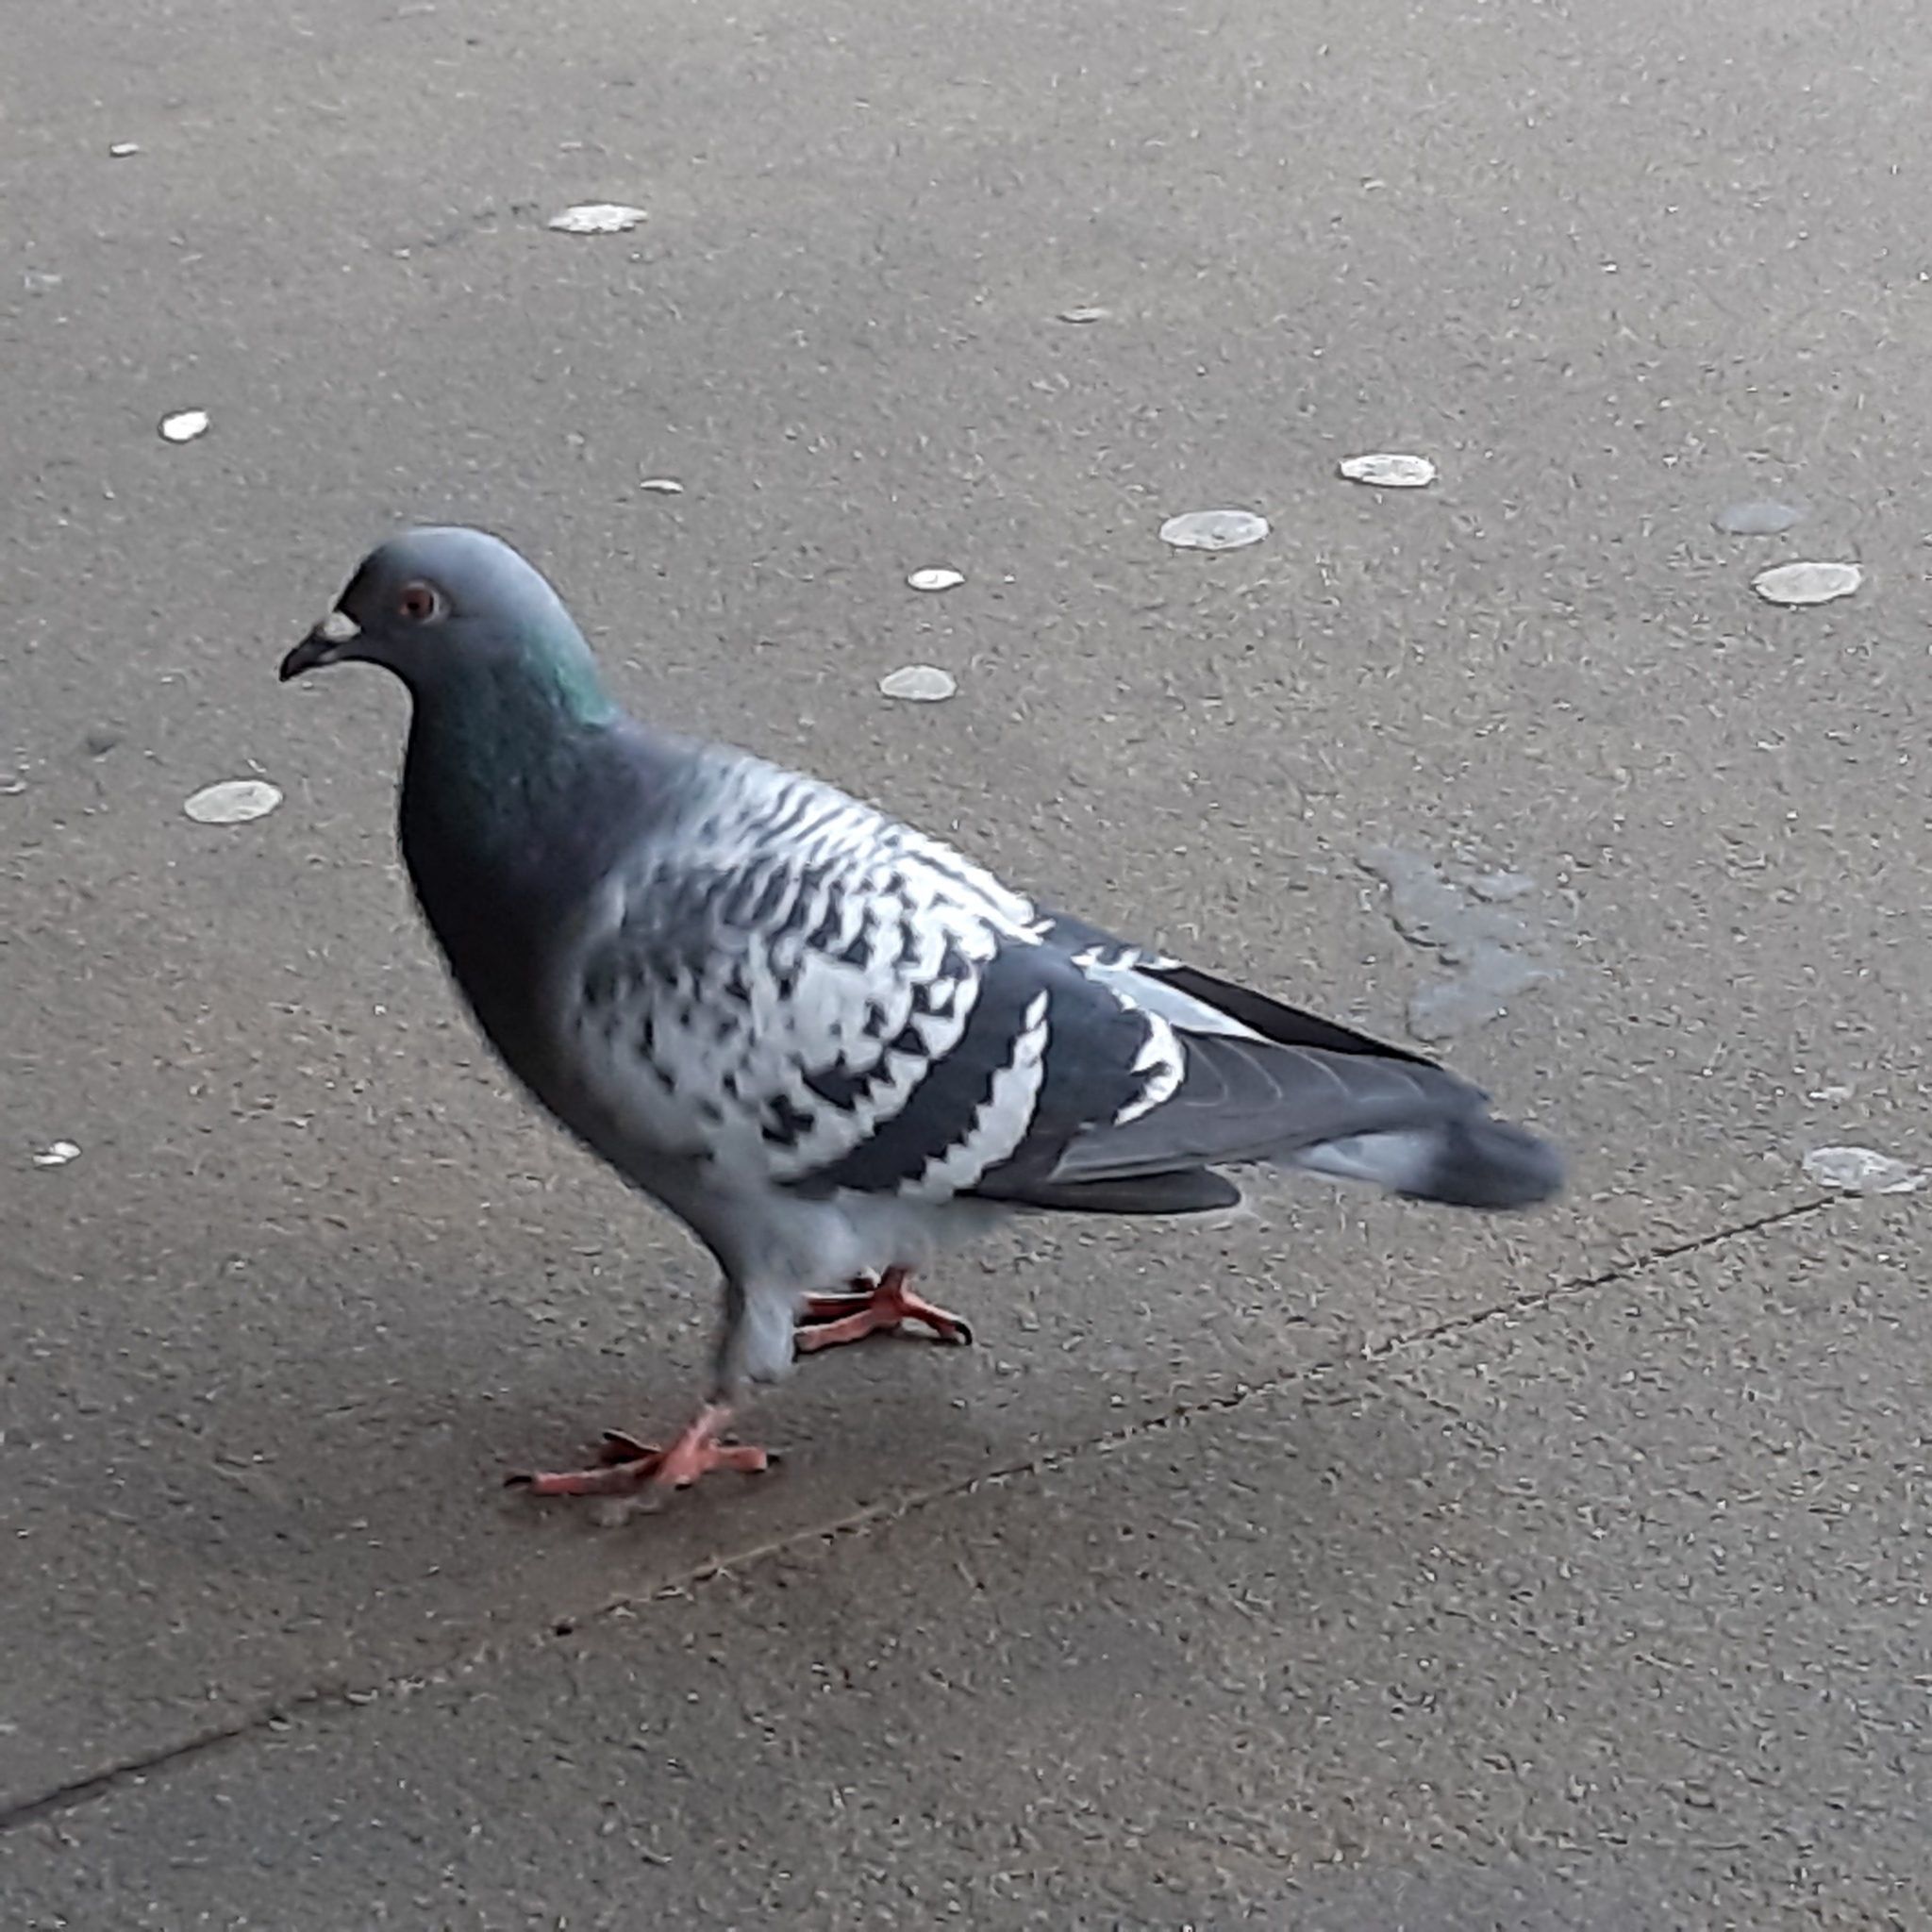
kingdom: Animalia
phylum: Chordata
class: Aves
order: Columbiformes
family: Columbidae
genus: Columba
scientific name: Columba livia
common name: Rock pigeon
